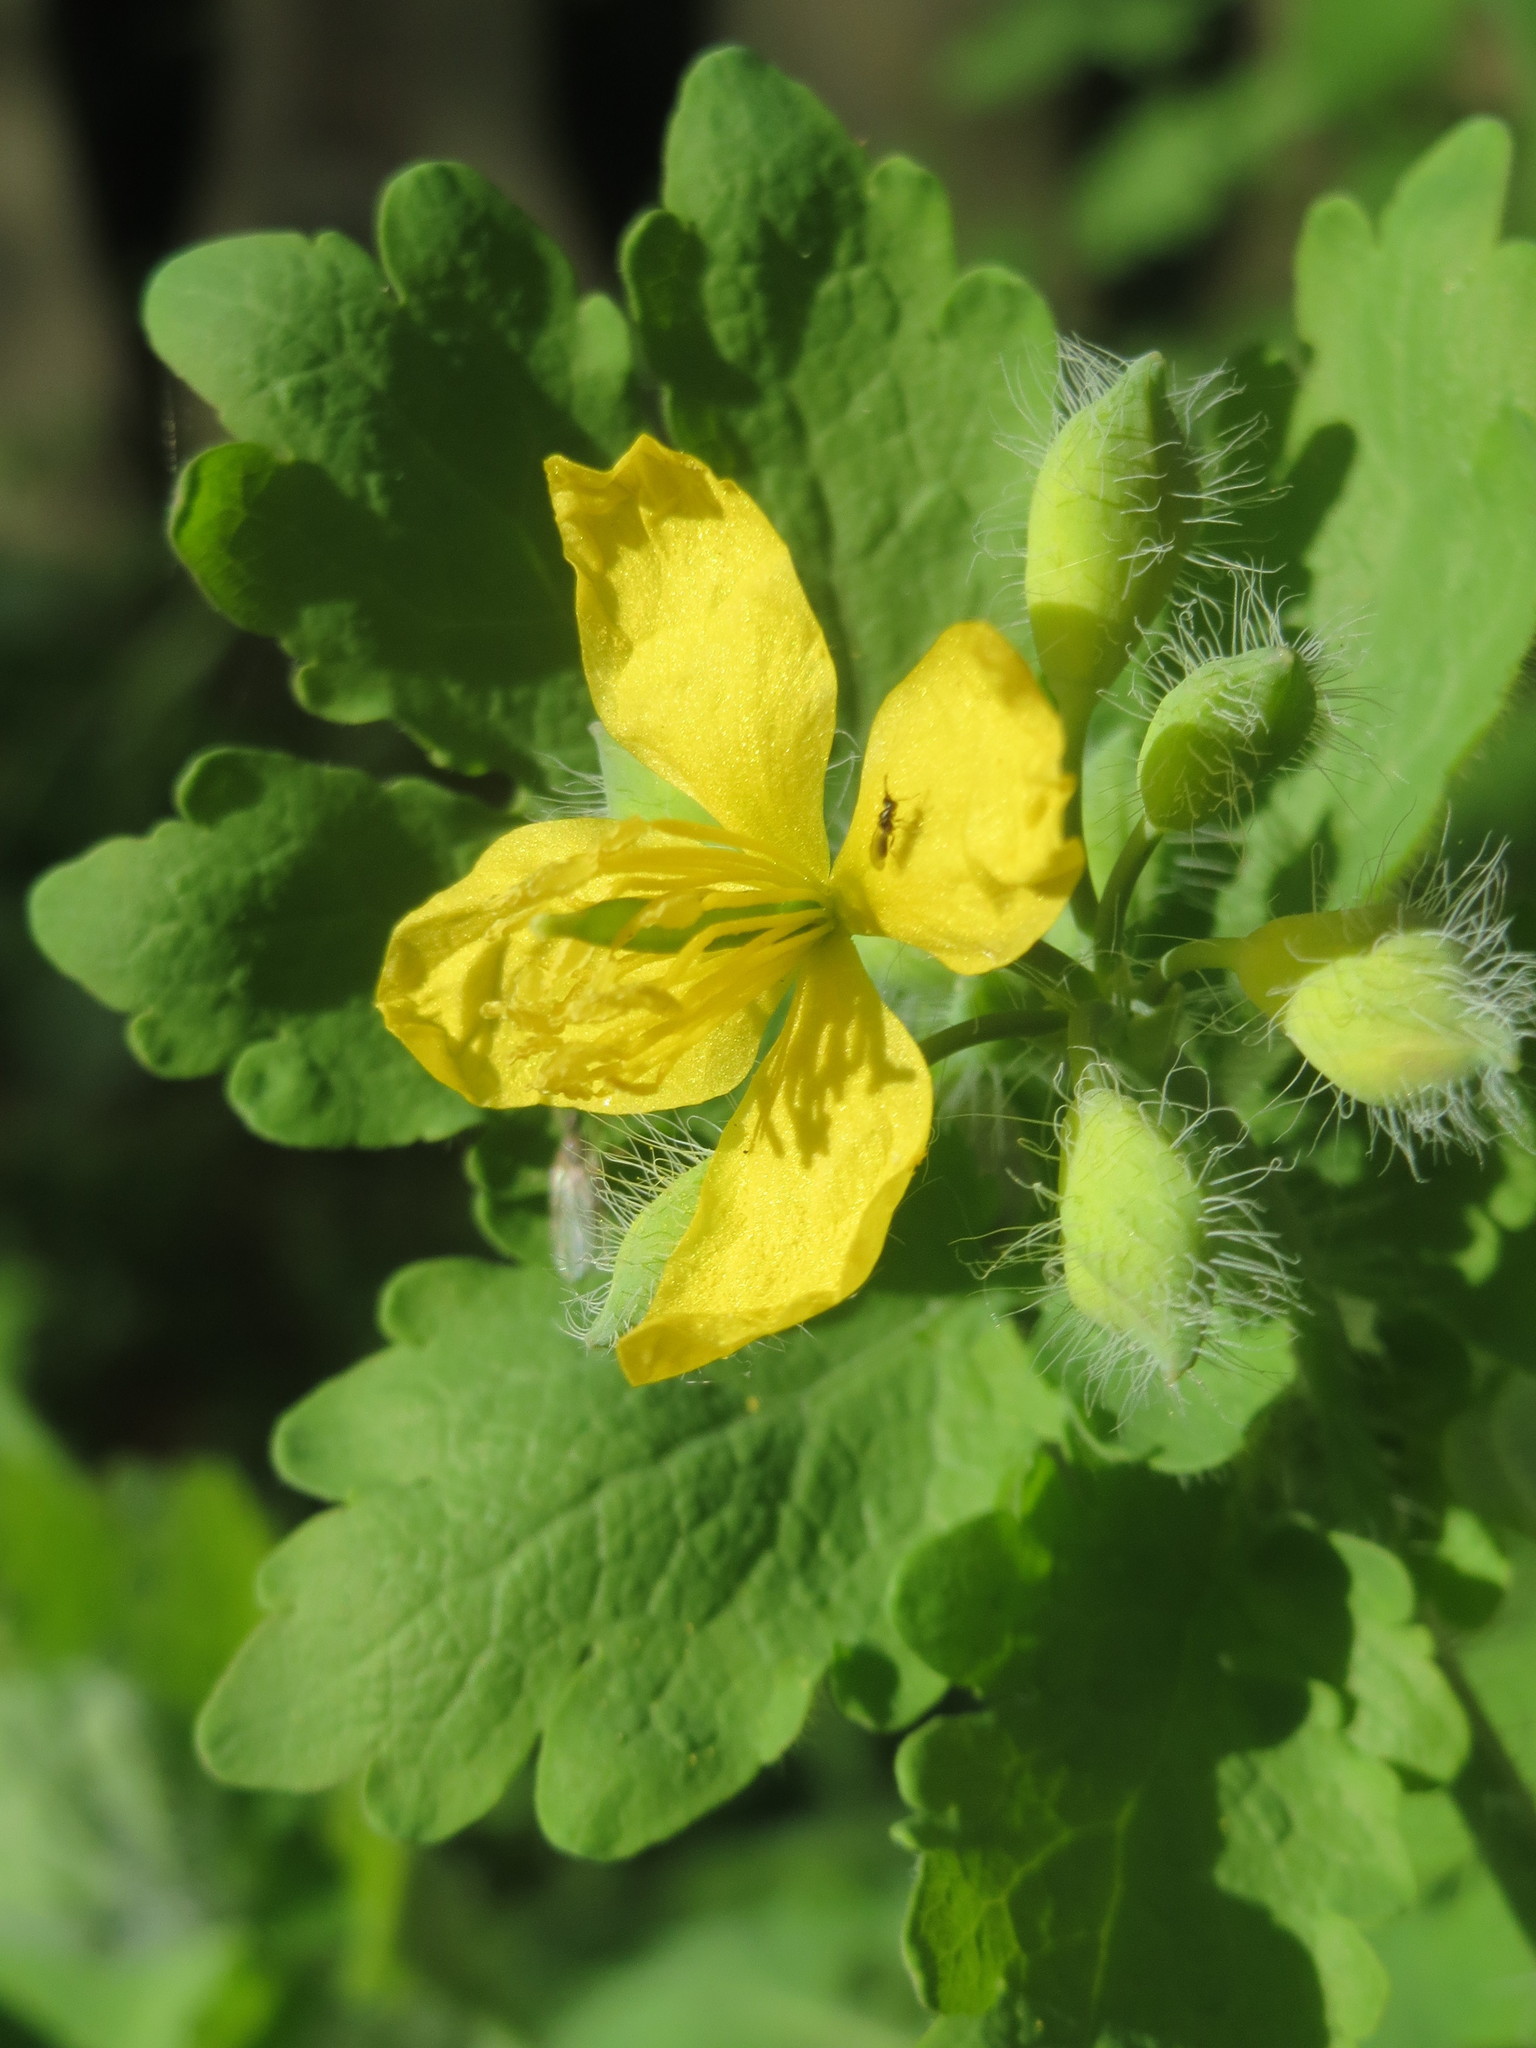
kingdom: Plantae
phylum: Tracheophyta
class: Magnoliopsida
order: Ranunculales
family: Papaveraceae
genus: Chelidonium
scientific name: Chelidonium majus
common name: Greater celandine
